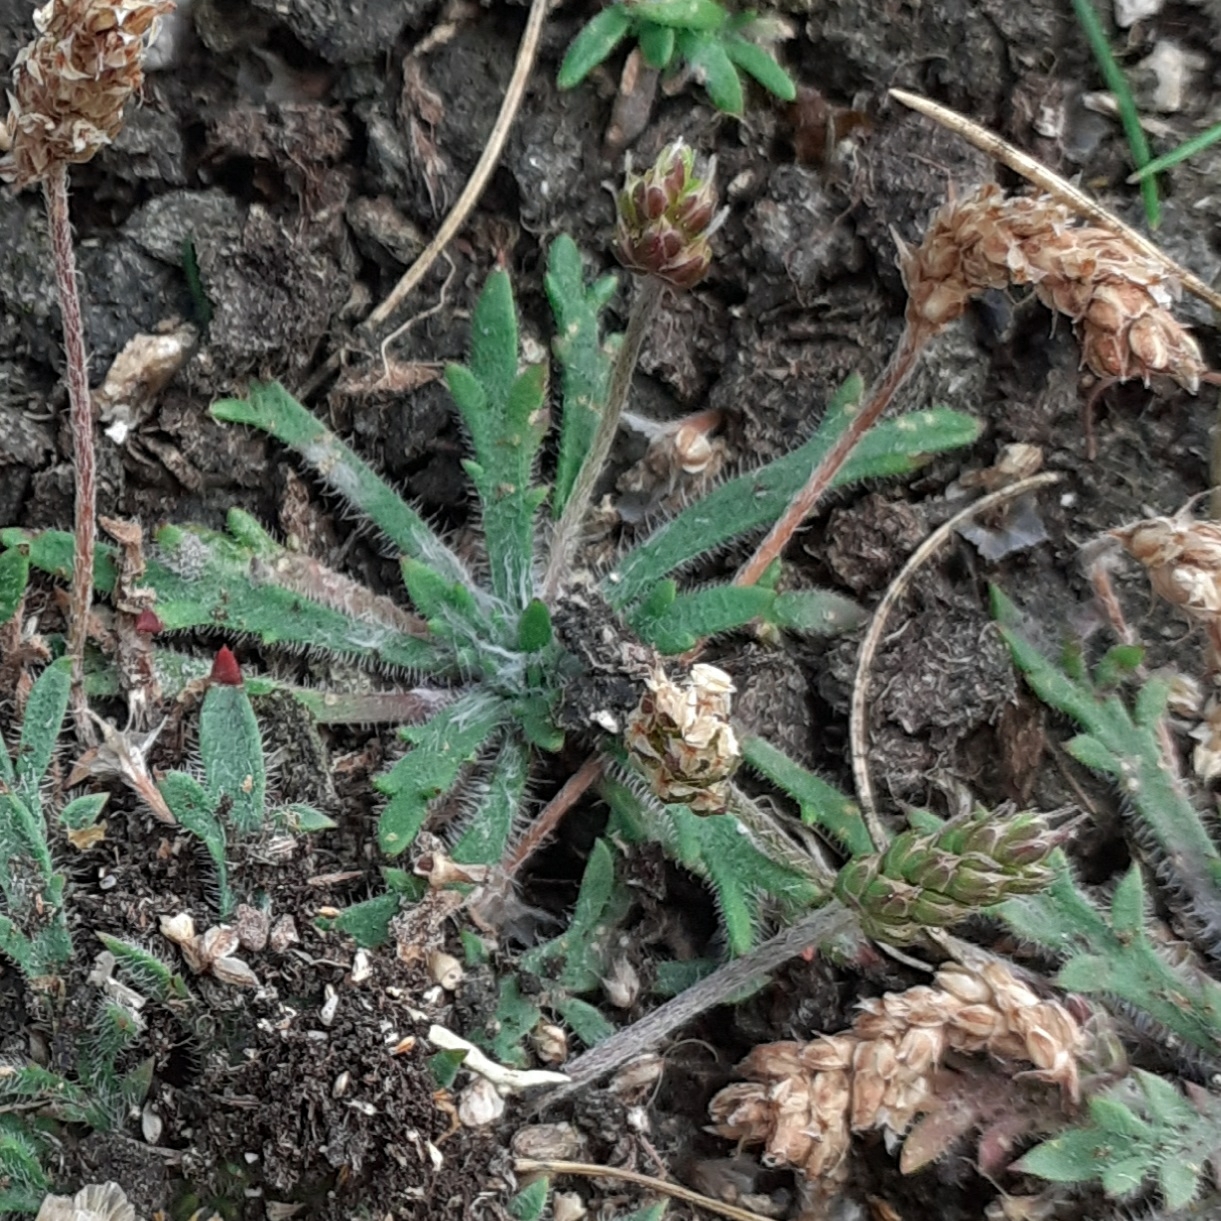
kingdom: Plantae
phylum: Tracheophyta
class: Magnoliopsida
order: Lamiales
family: Plantaginaceae
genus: Plantago
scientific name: Plantago coronopus
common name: Buck's-horn plantain
